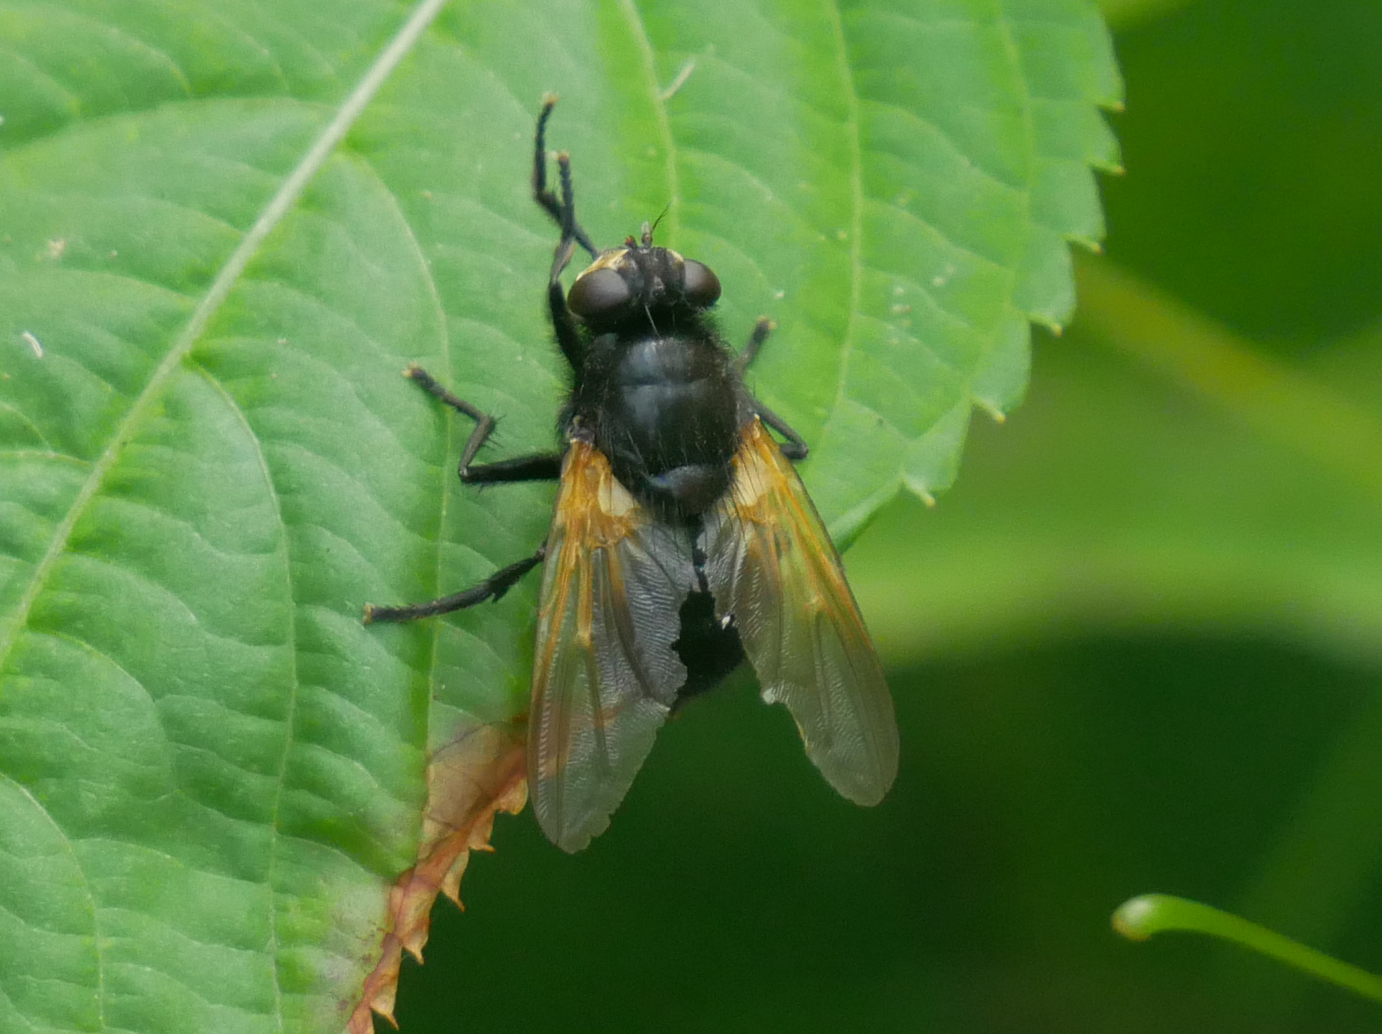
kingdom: Animalia
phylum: Arthropoda
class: Insecta
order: Diptera
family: Muscidae
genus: Mesembrina
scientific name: Mesembrina meridiana
